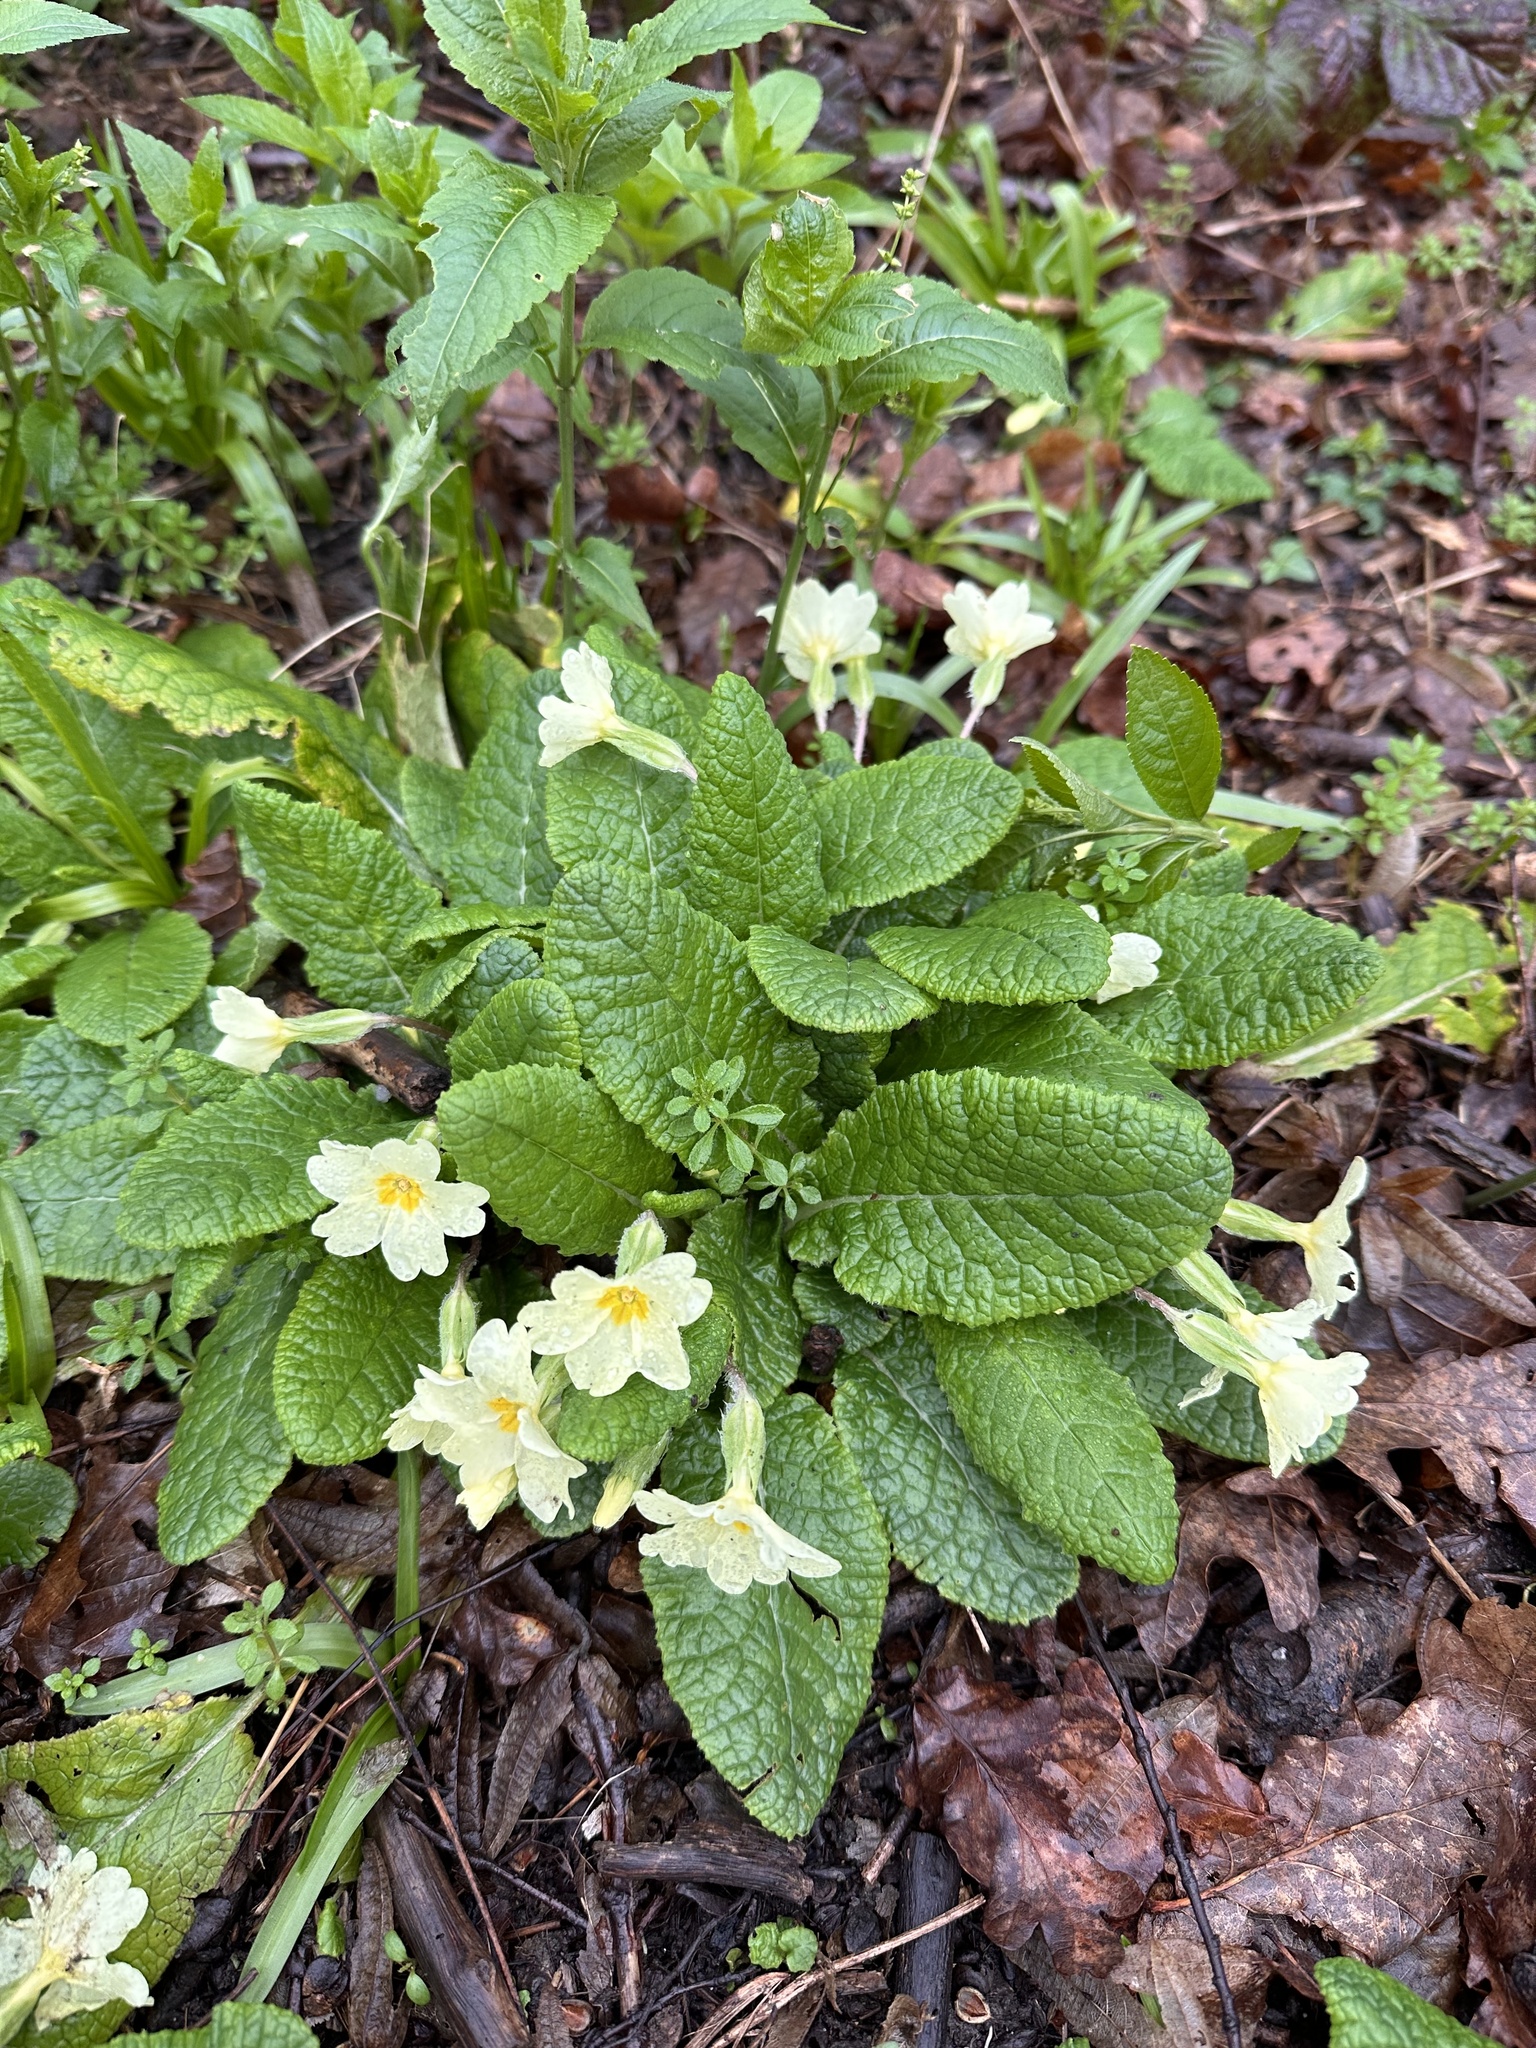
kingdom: Plantae
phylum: Tracheophyta
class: Magnoliopsida
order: Ericales
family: Primulaceae
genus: Primula
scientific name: Primula vulgaris
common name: Primrose
